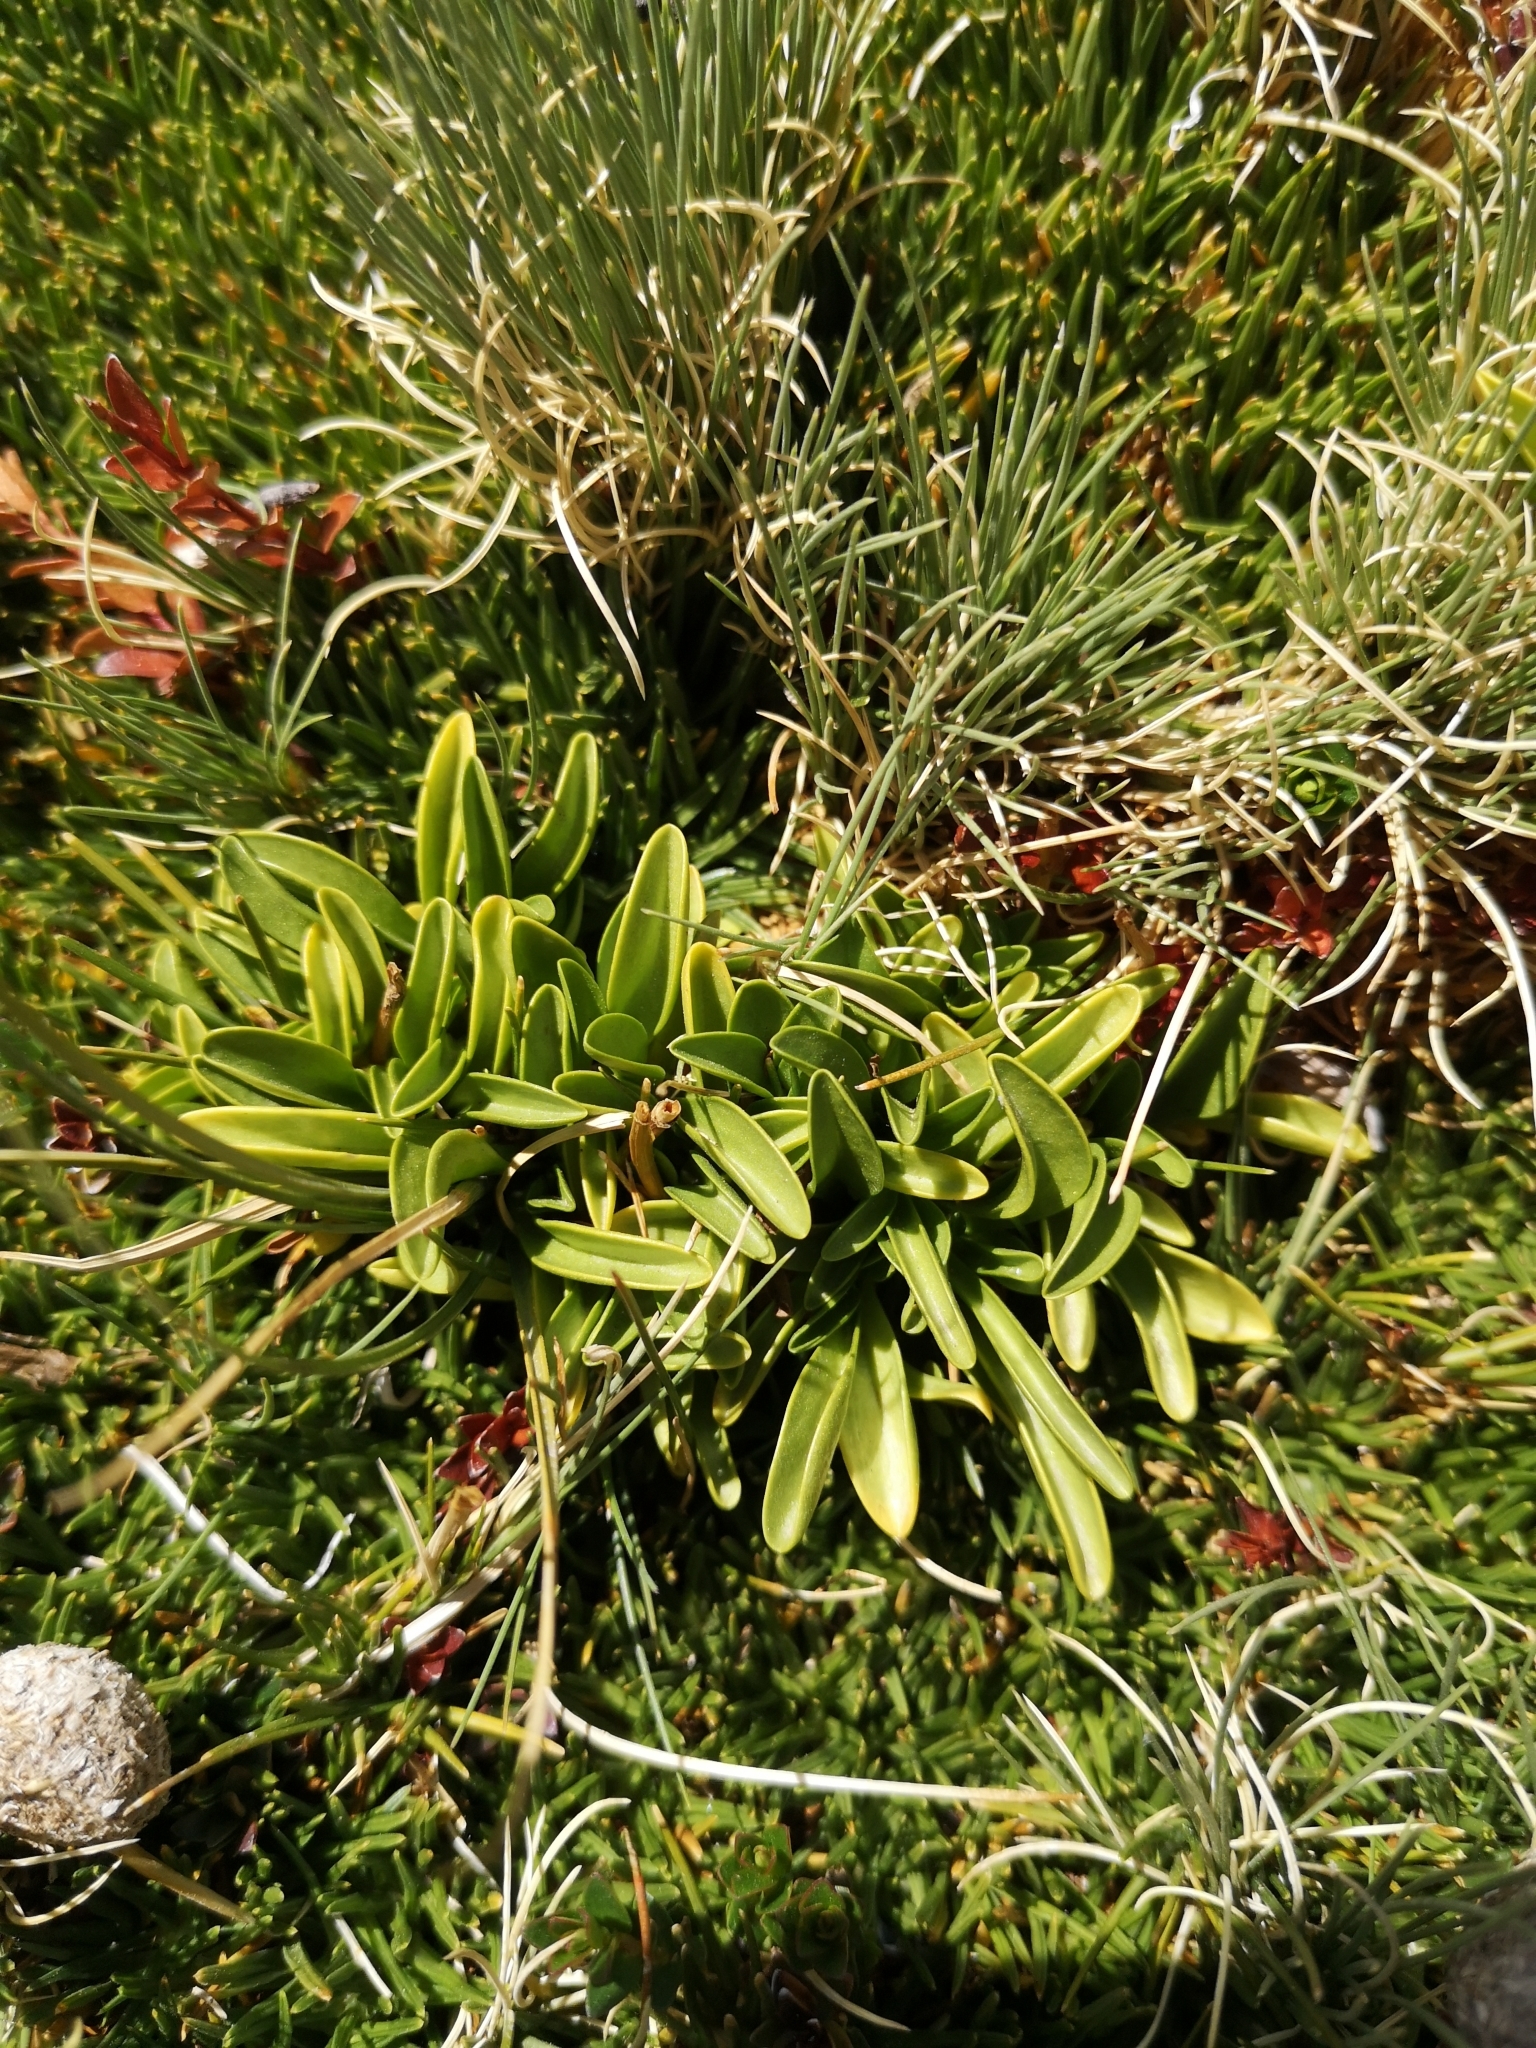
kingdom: Plantae
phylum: Tracheophyta
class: Magnoliopsida
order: Gentianales
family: Gentianaceae
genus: Gentianella
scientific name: Gentianella ottonis
